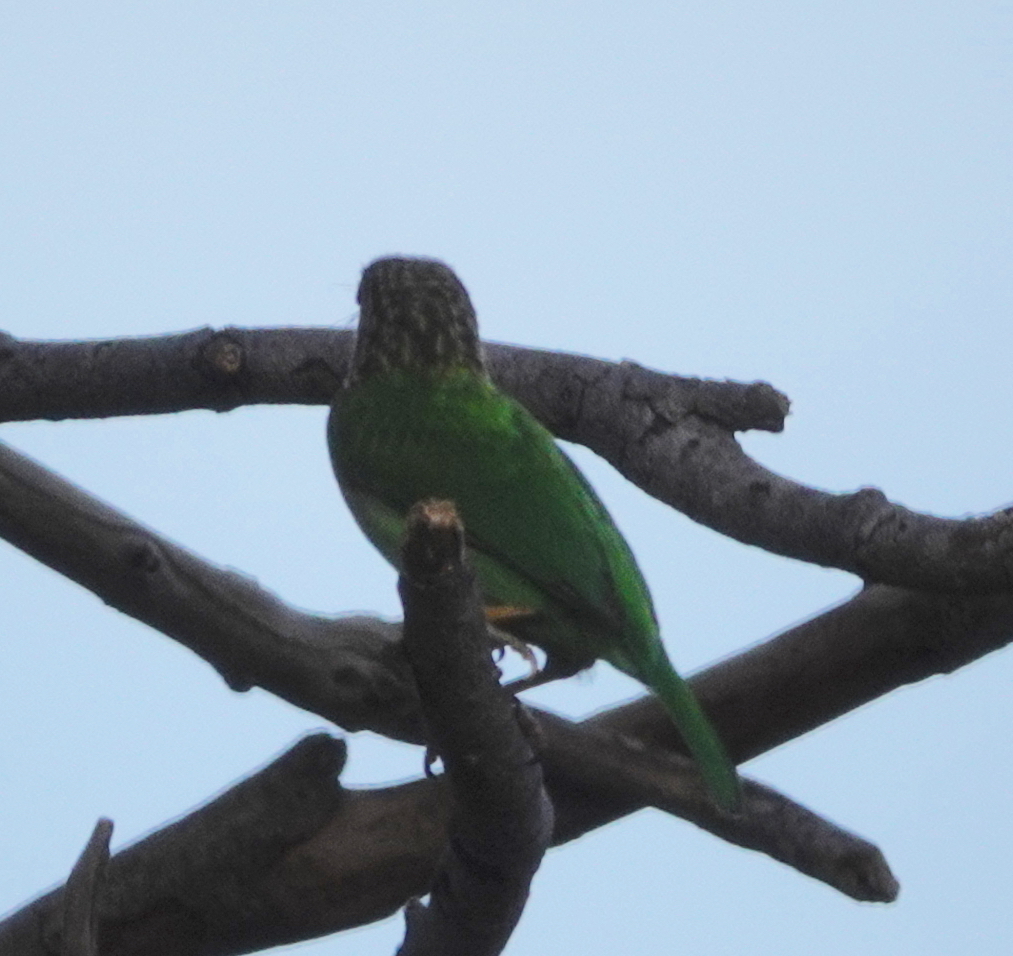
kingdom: Animalia
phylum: Chordata
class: Aves
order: Piciformes
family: Megalaimidae
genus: Psilopogon
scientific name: Psilopogon zeylanicus
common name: Brown-headed barbet
